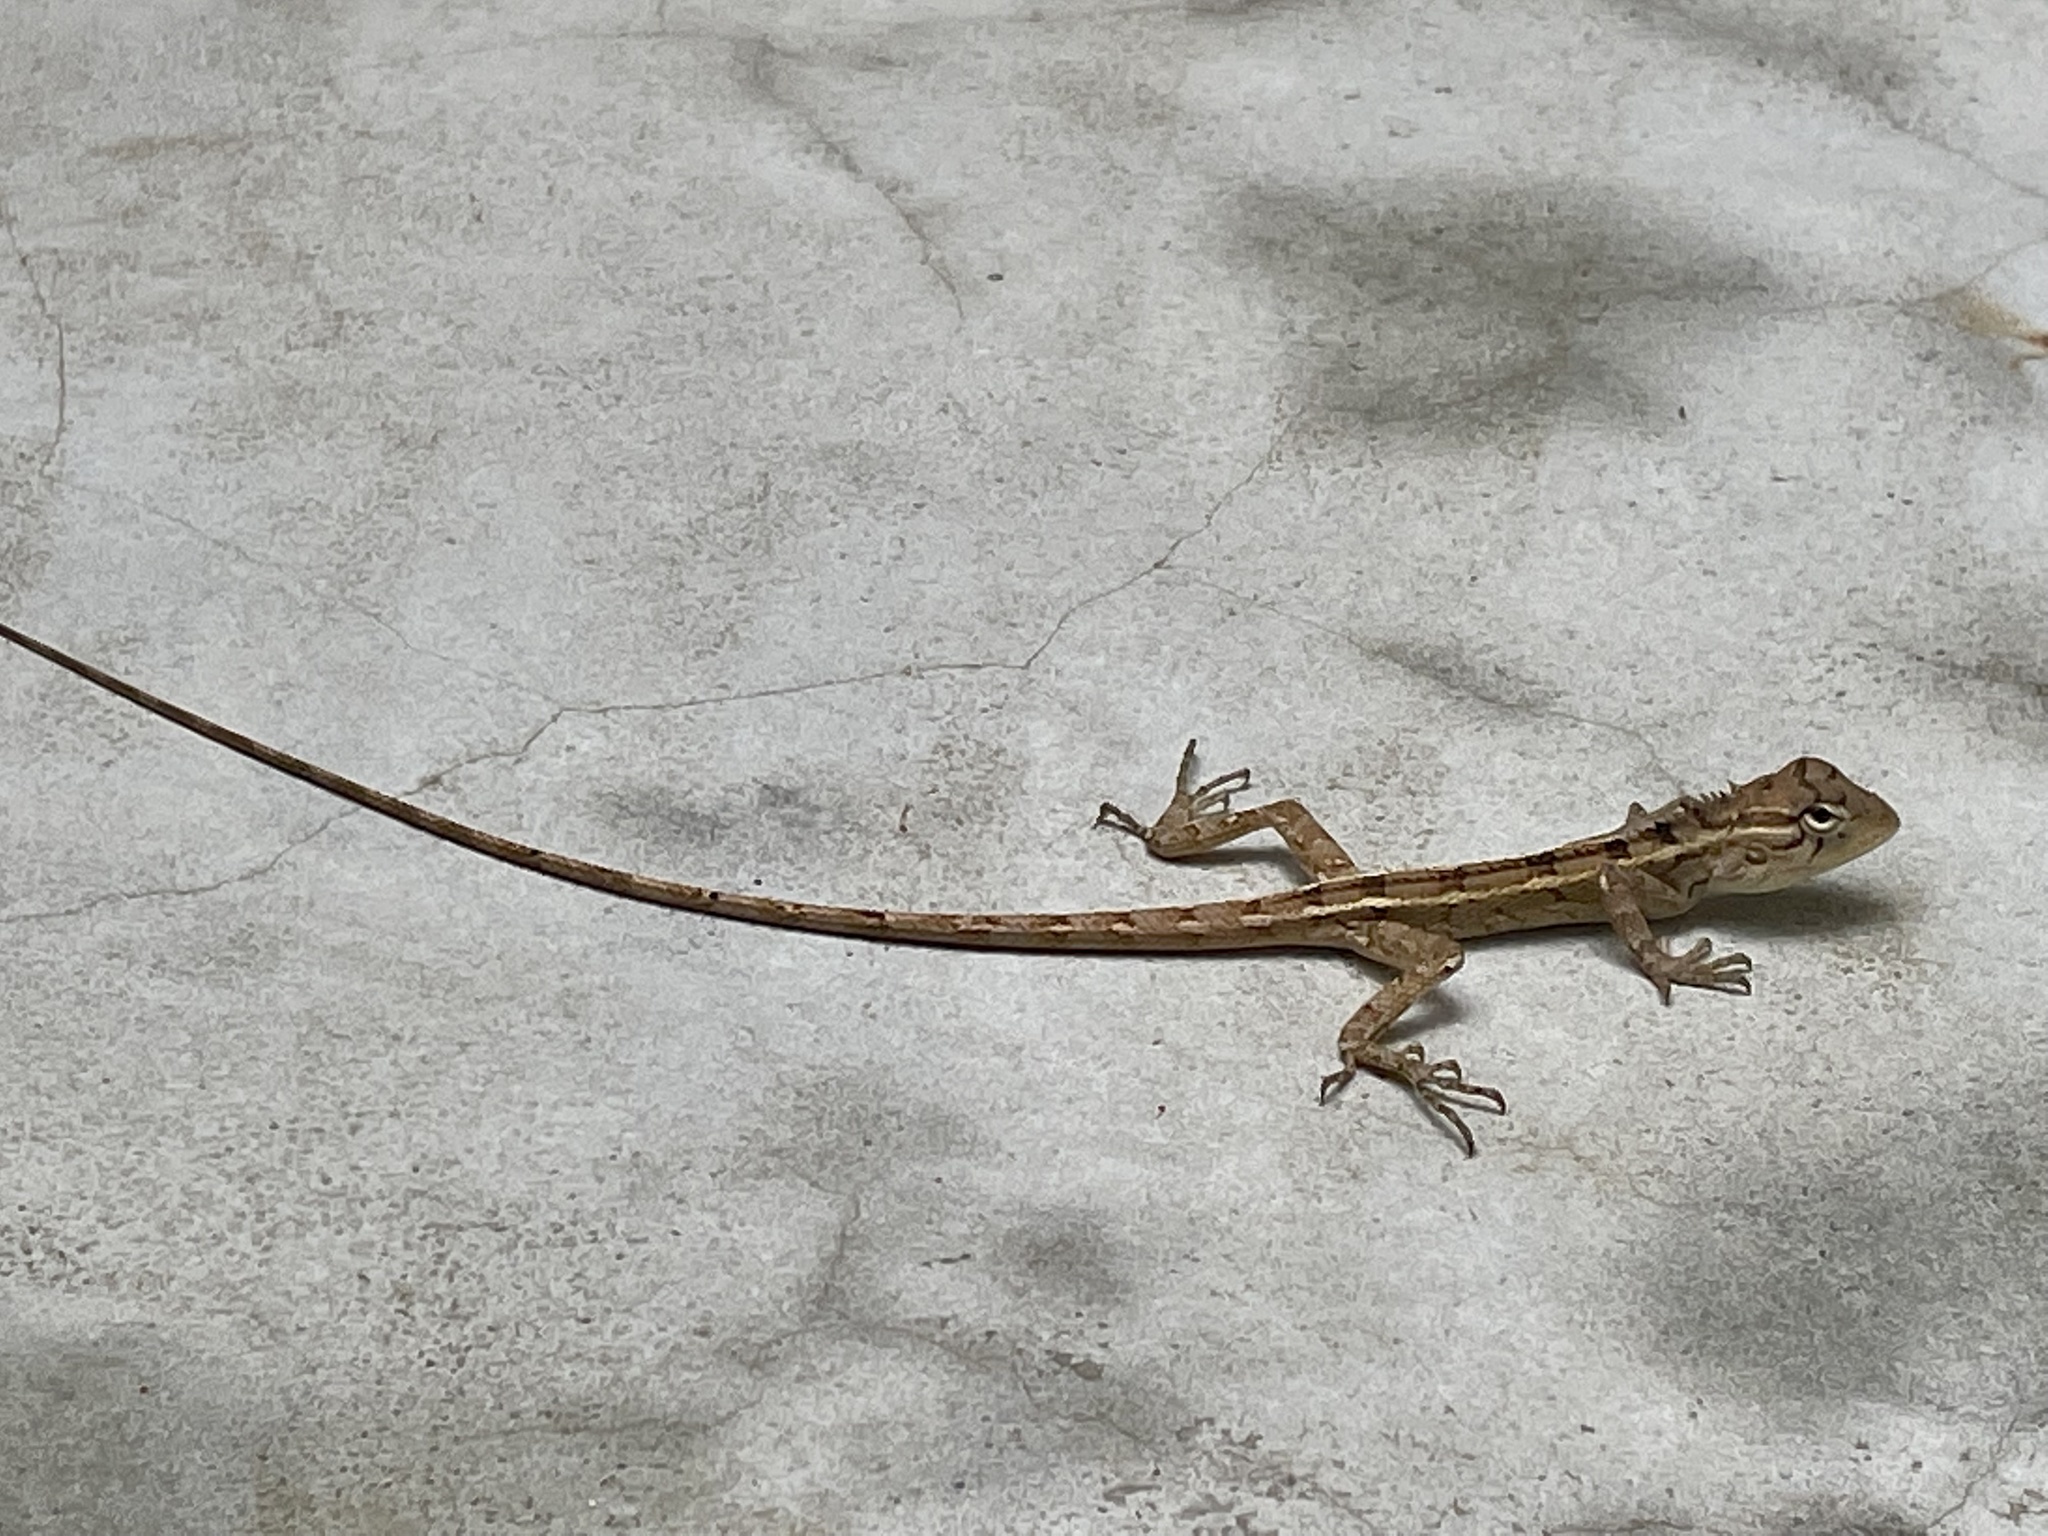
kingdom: Animalia
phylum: Chordata
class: Squamata
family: Agamidae
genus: Calotes
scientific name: Calotes versicolor
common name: Oriental garden lizard
